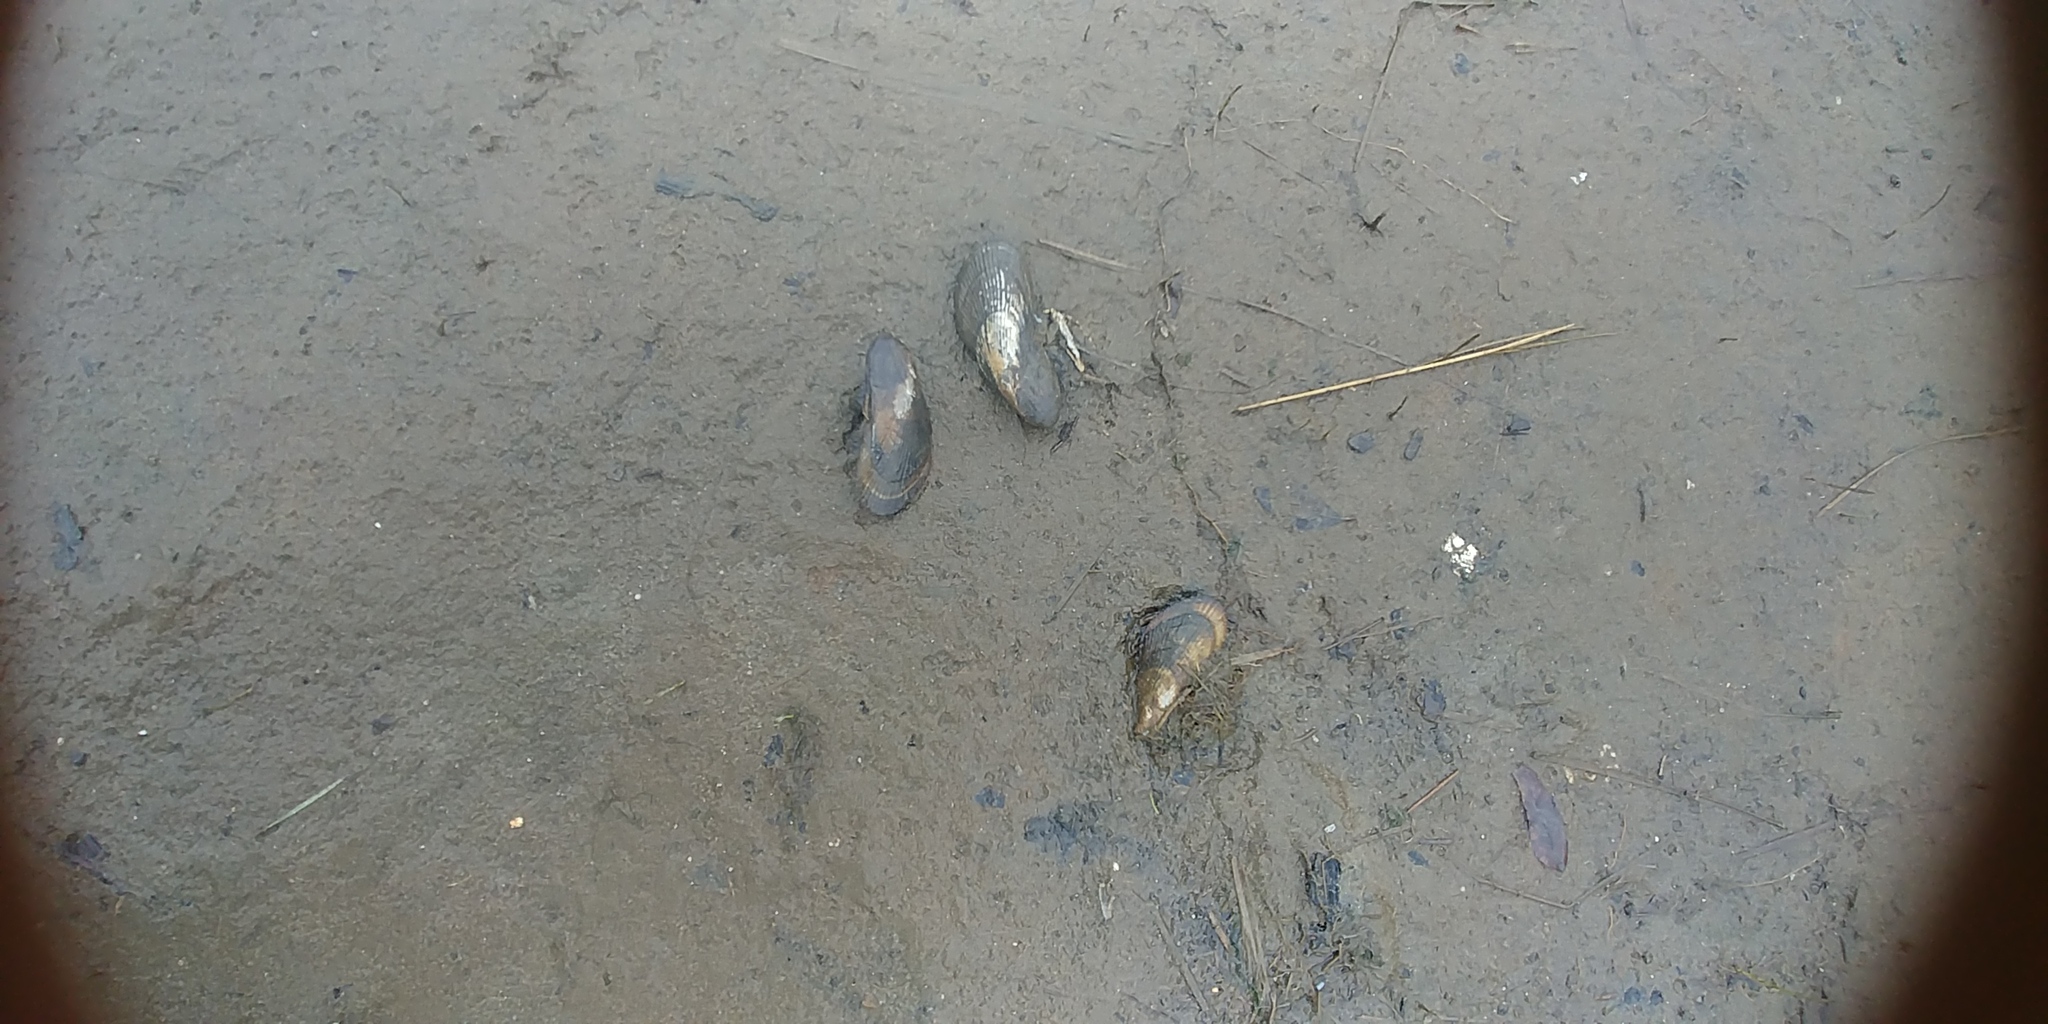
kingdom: Animalia
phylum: Mollusca
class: Bivalvia
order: Mytilida
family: Mytilidae
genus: Geukensia
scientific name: Geukensia demissa
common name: Ribbed mussel
